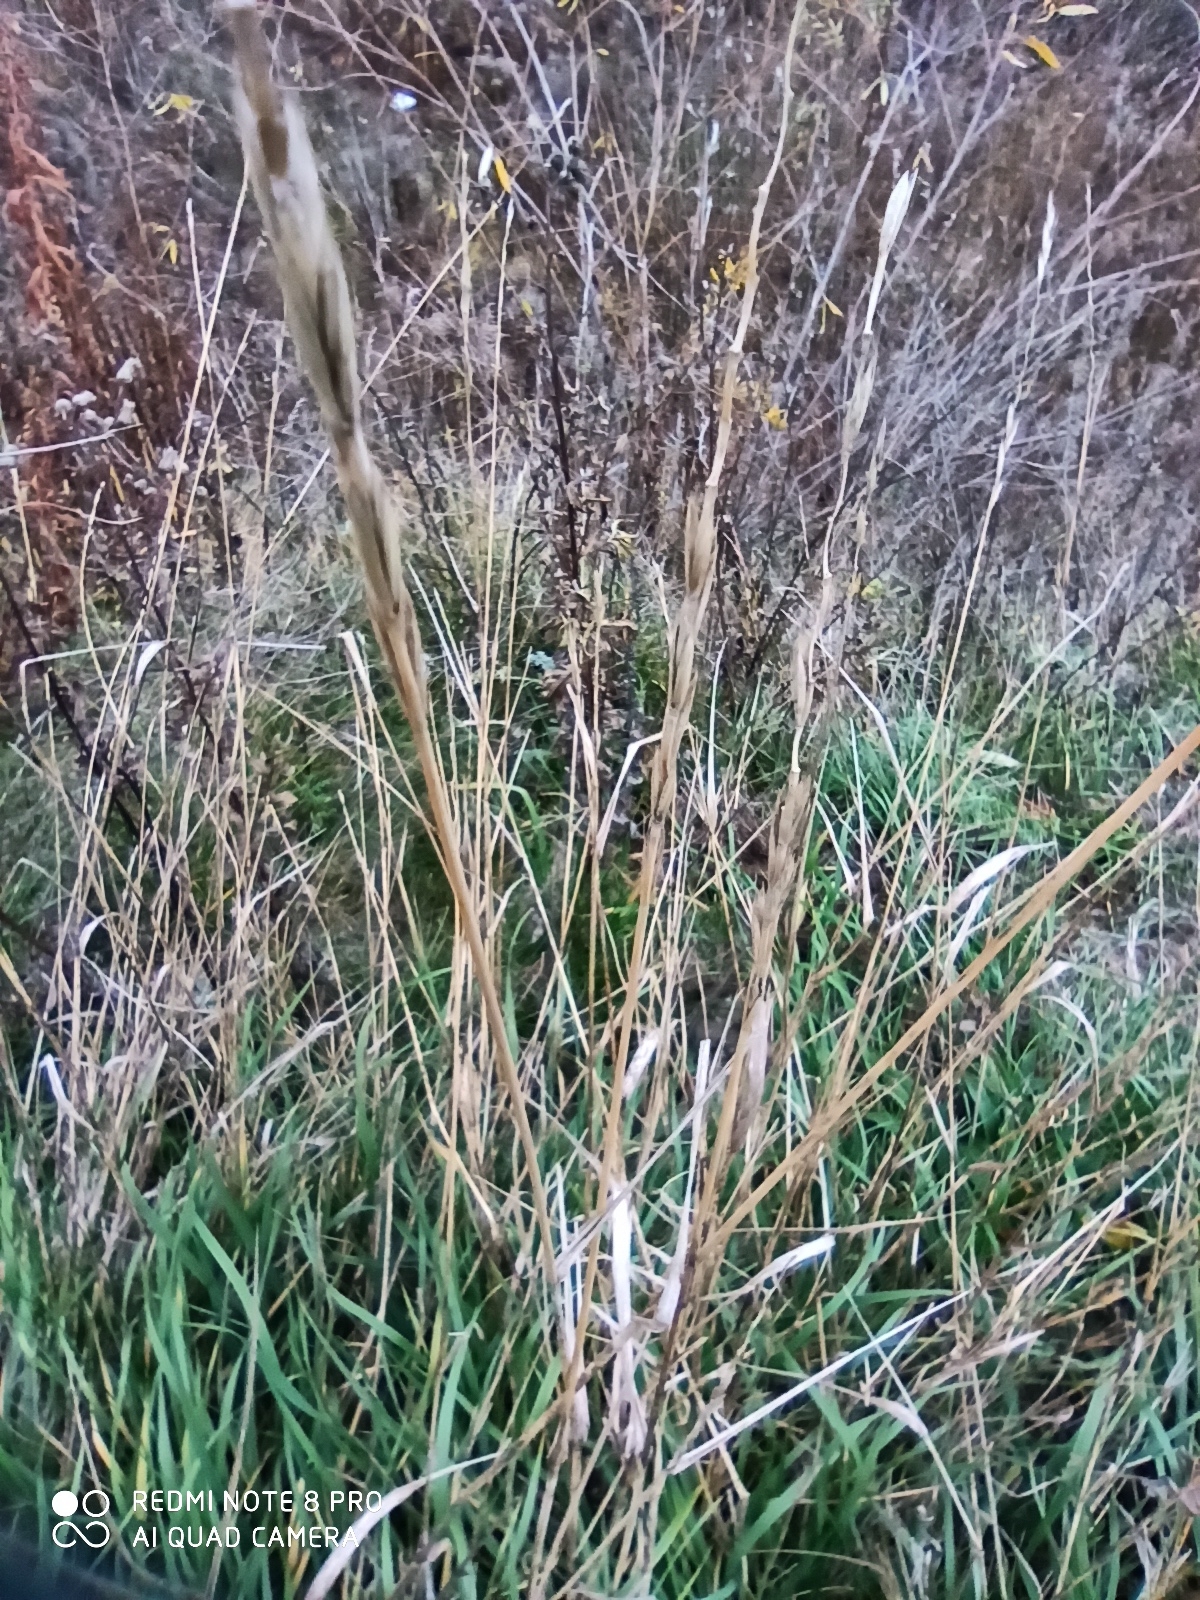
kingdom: Plantae
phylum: Tracheophyta
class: Liliopsida
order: Poales
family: Poaceae
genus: Elymus
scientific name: Elymus repens
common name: Quackgrass
